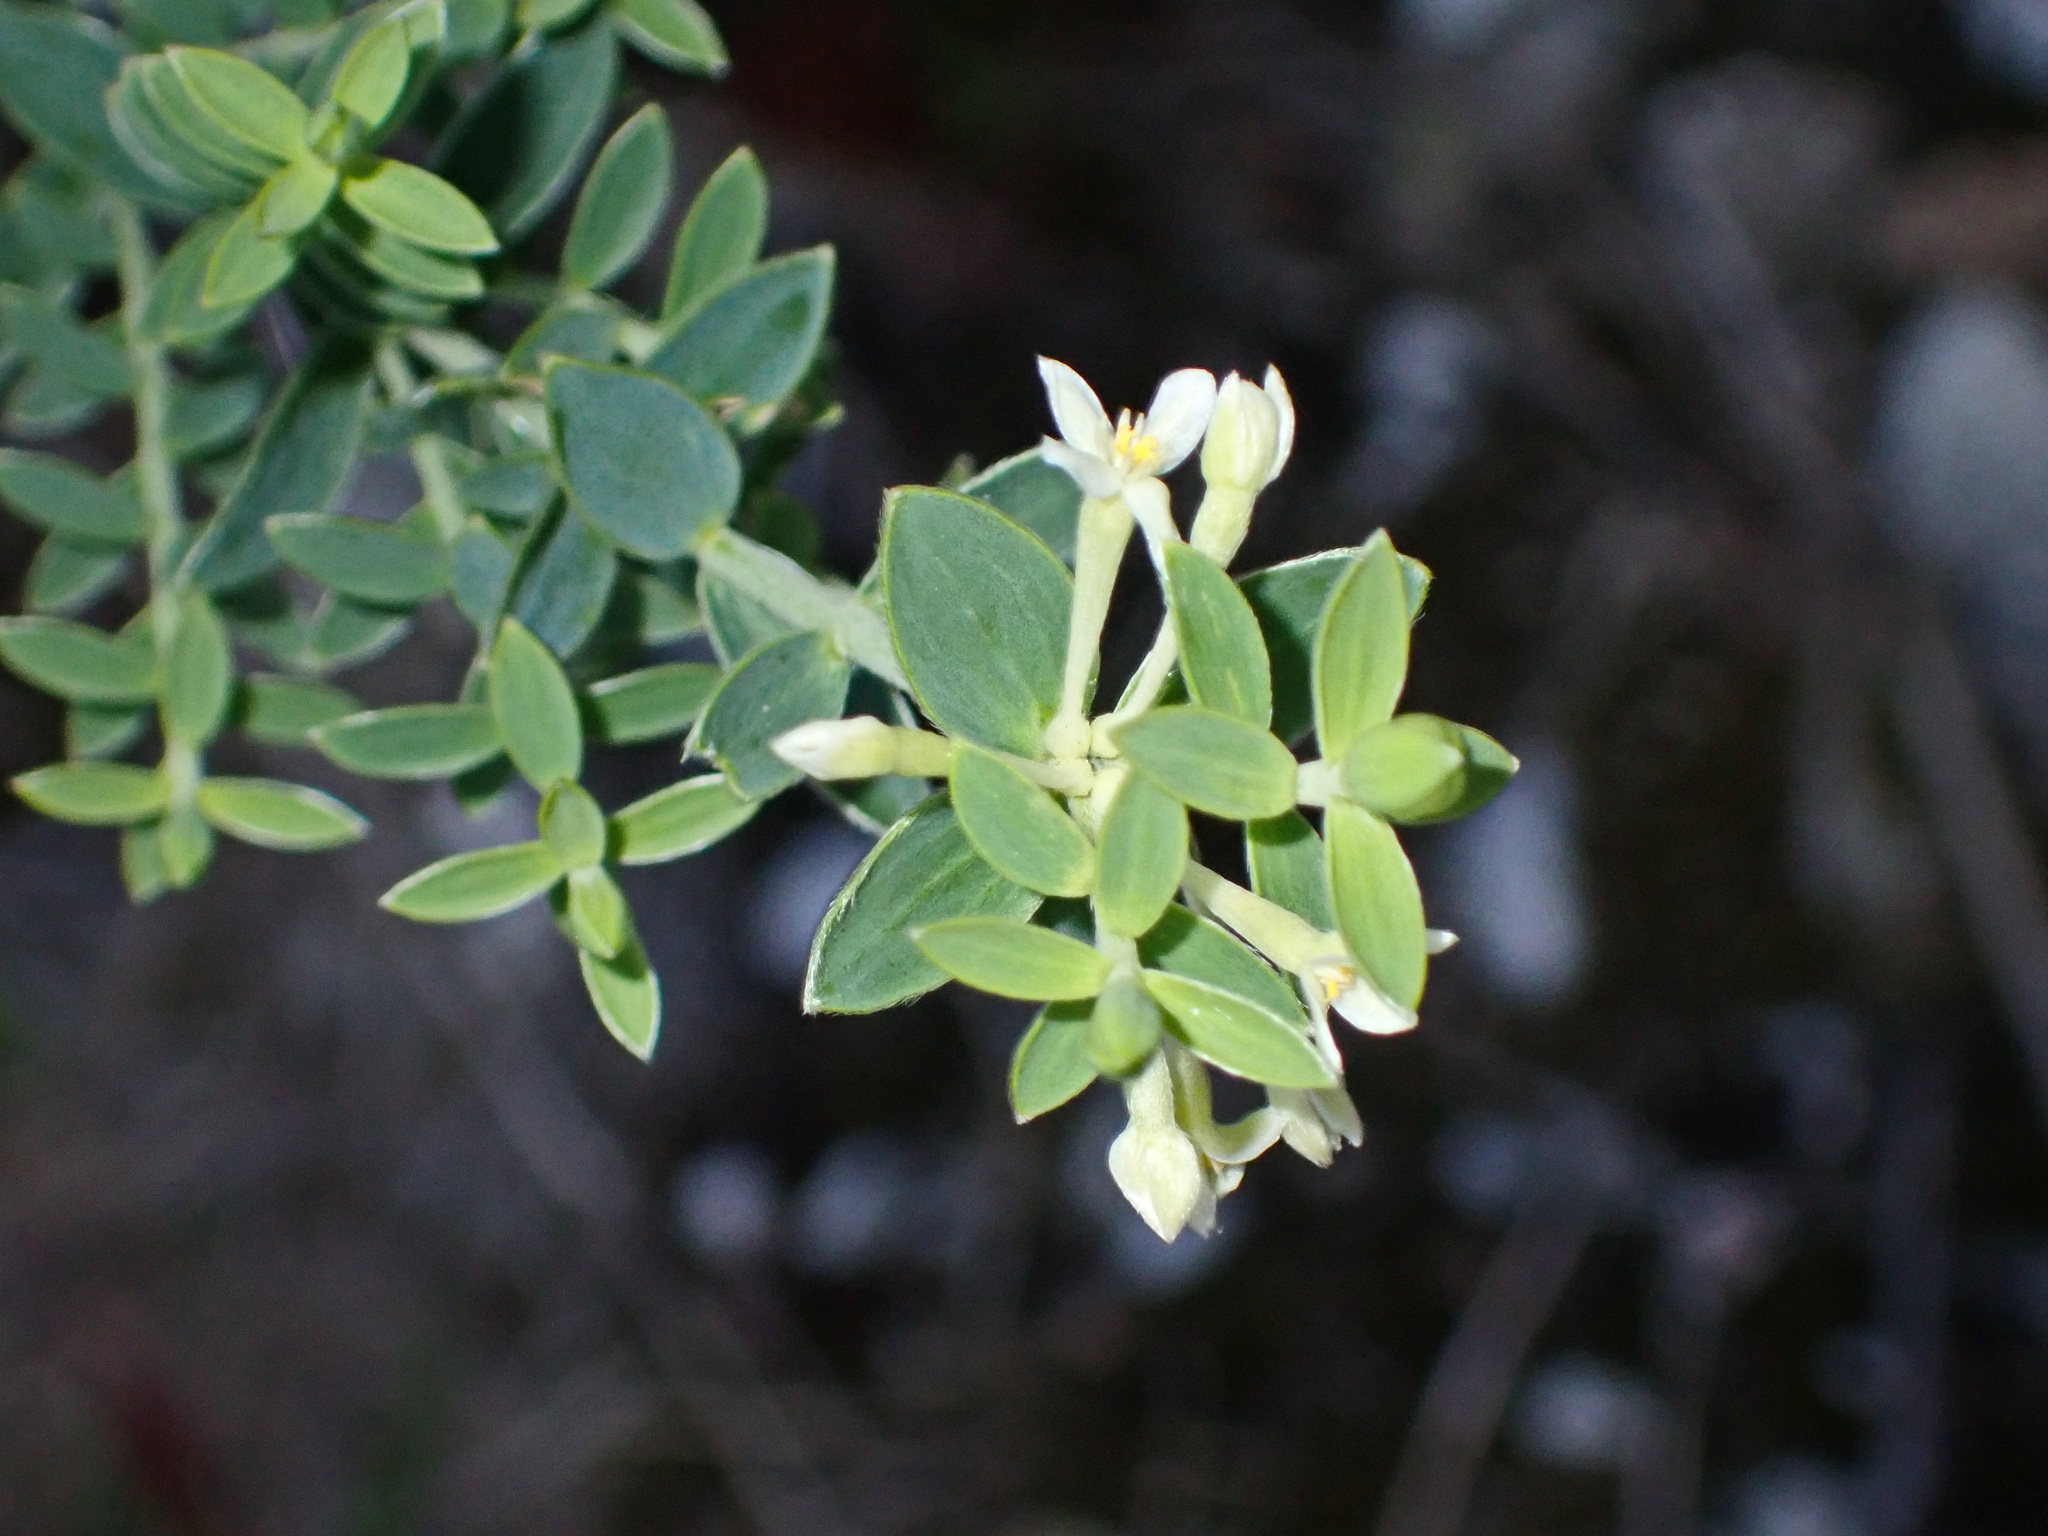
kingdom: Plantae
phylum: Tracheophyta
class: Magnoliopsida
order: Malvales
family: Thymelaeaceae
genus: Gnidia
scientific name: Gnidia sericea
